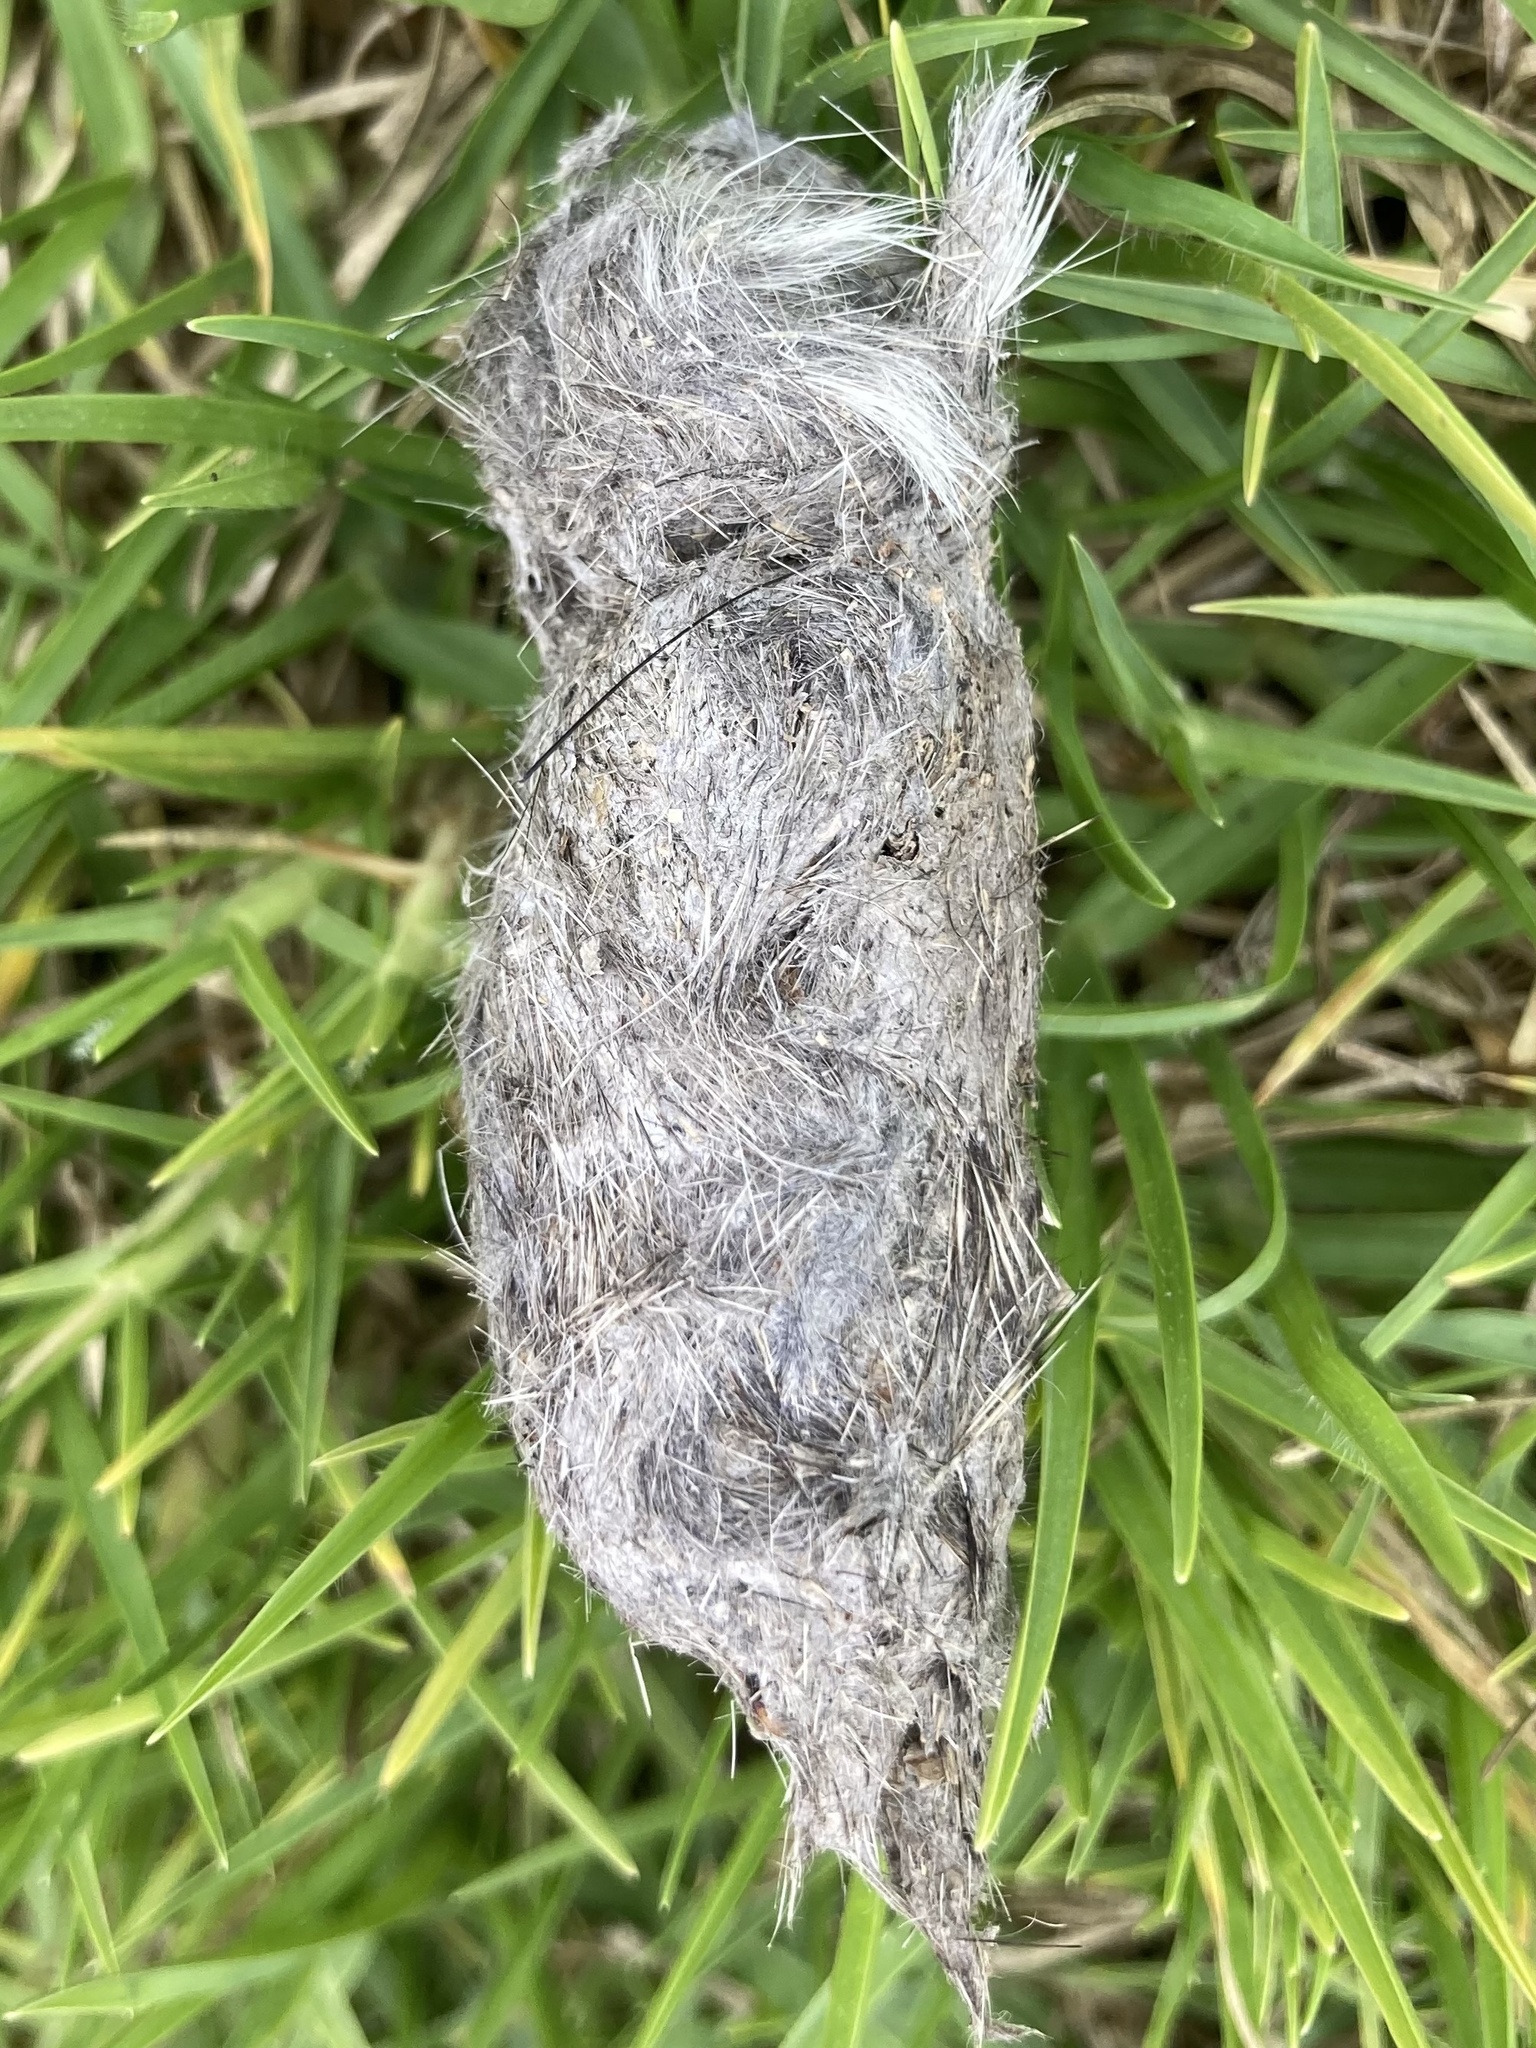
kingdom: Animalia
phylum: Chordata
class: Mammalia
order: Carnivora
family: Canidae
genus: Canis
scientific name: Canis latrans
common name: Coyote
